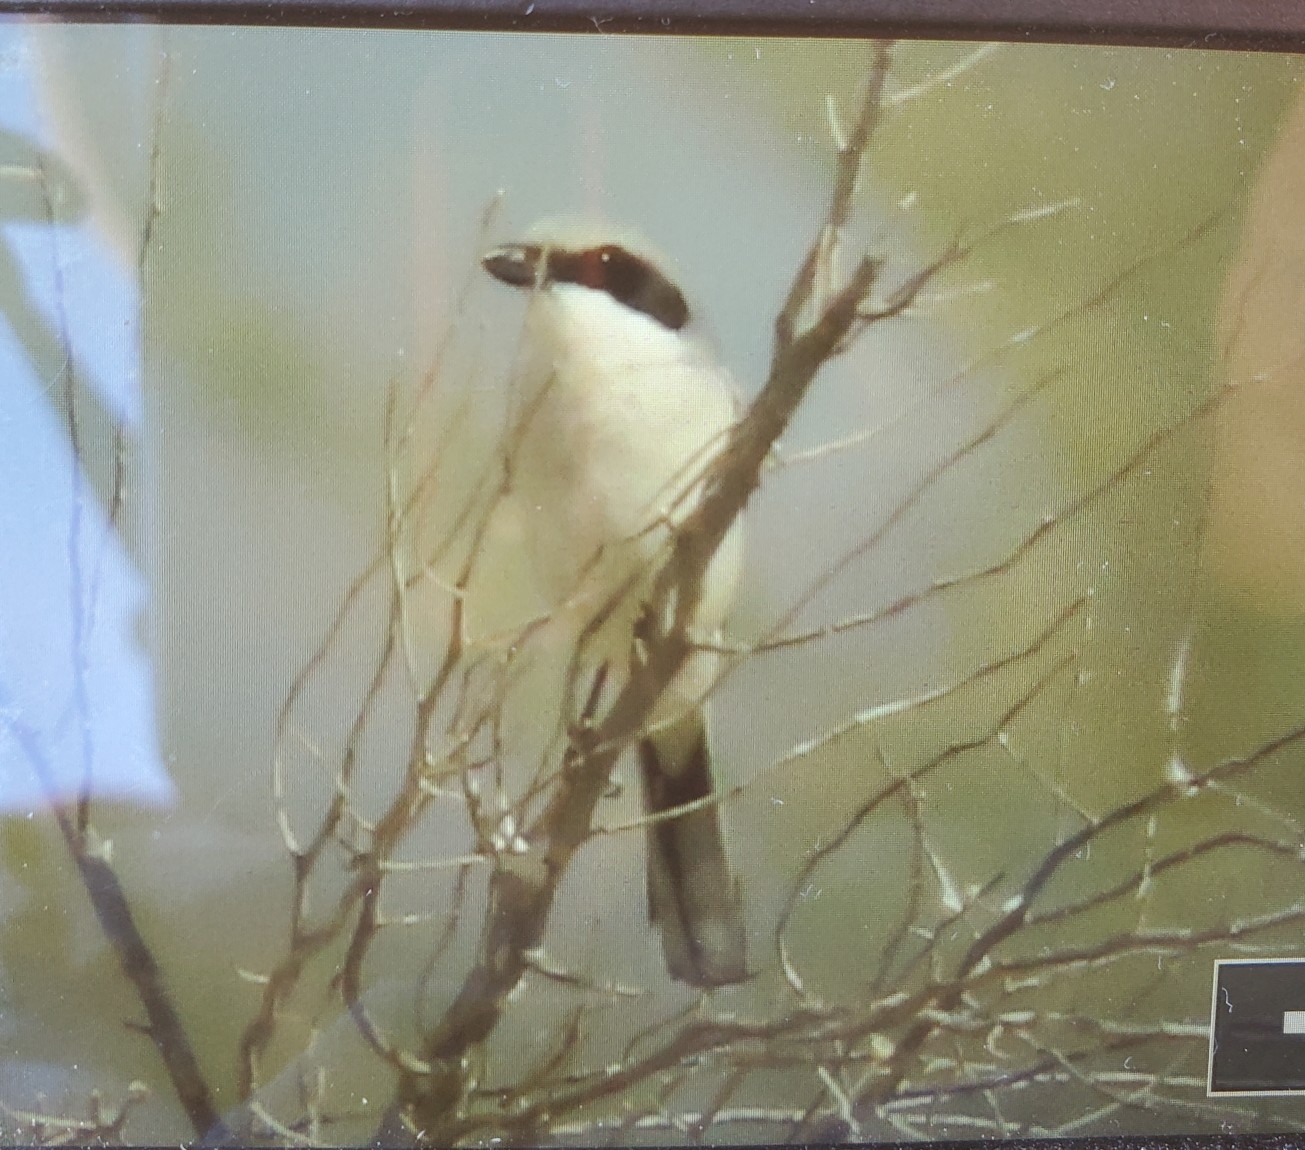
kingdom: Animalia
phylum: Chordata
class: Aves
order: Passeriformes
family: Laniidae
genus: Lanius
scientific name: Lanius ludovicianus
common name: Loggerhead shrike
